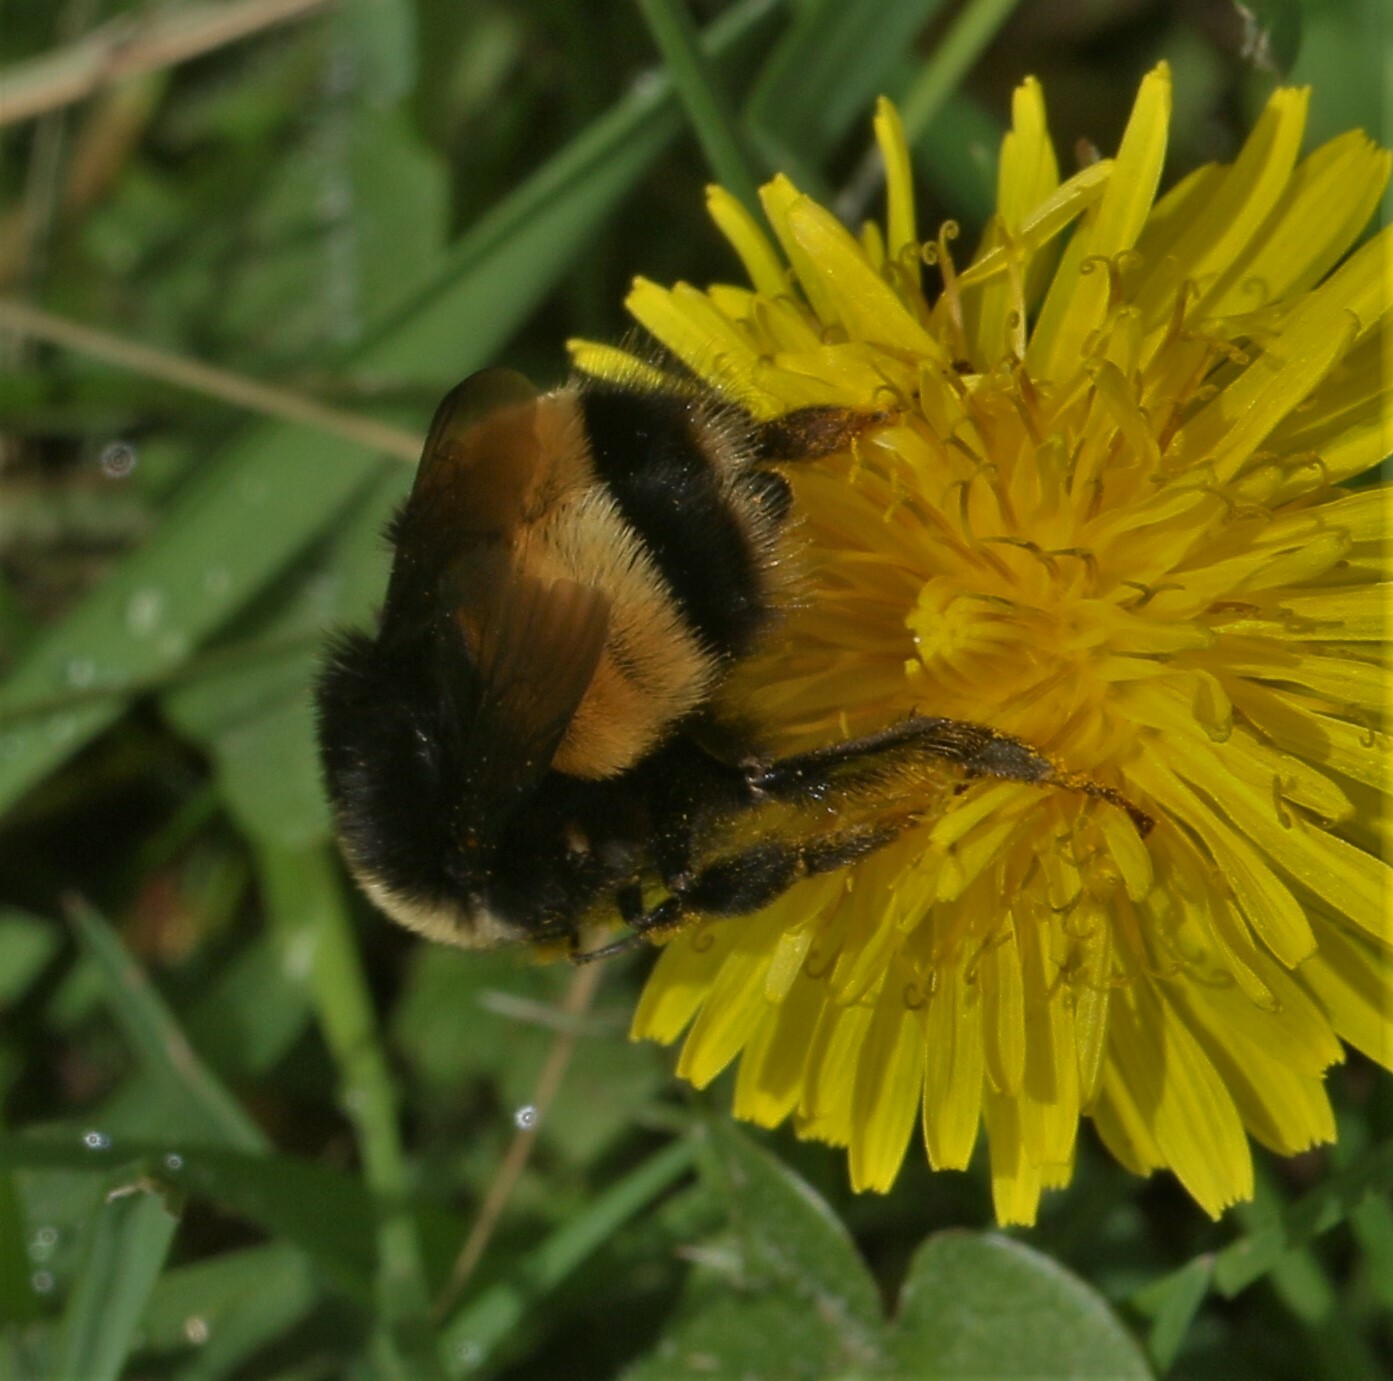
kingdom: Animalia
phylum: Arthropoda
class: Insecta
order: Hymenoptera
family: Apidae
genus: Bombus
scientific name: Bombus terricola
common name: Yellow-banded bumble bee
